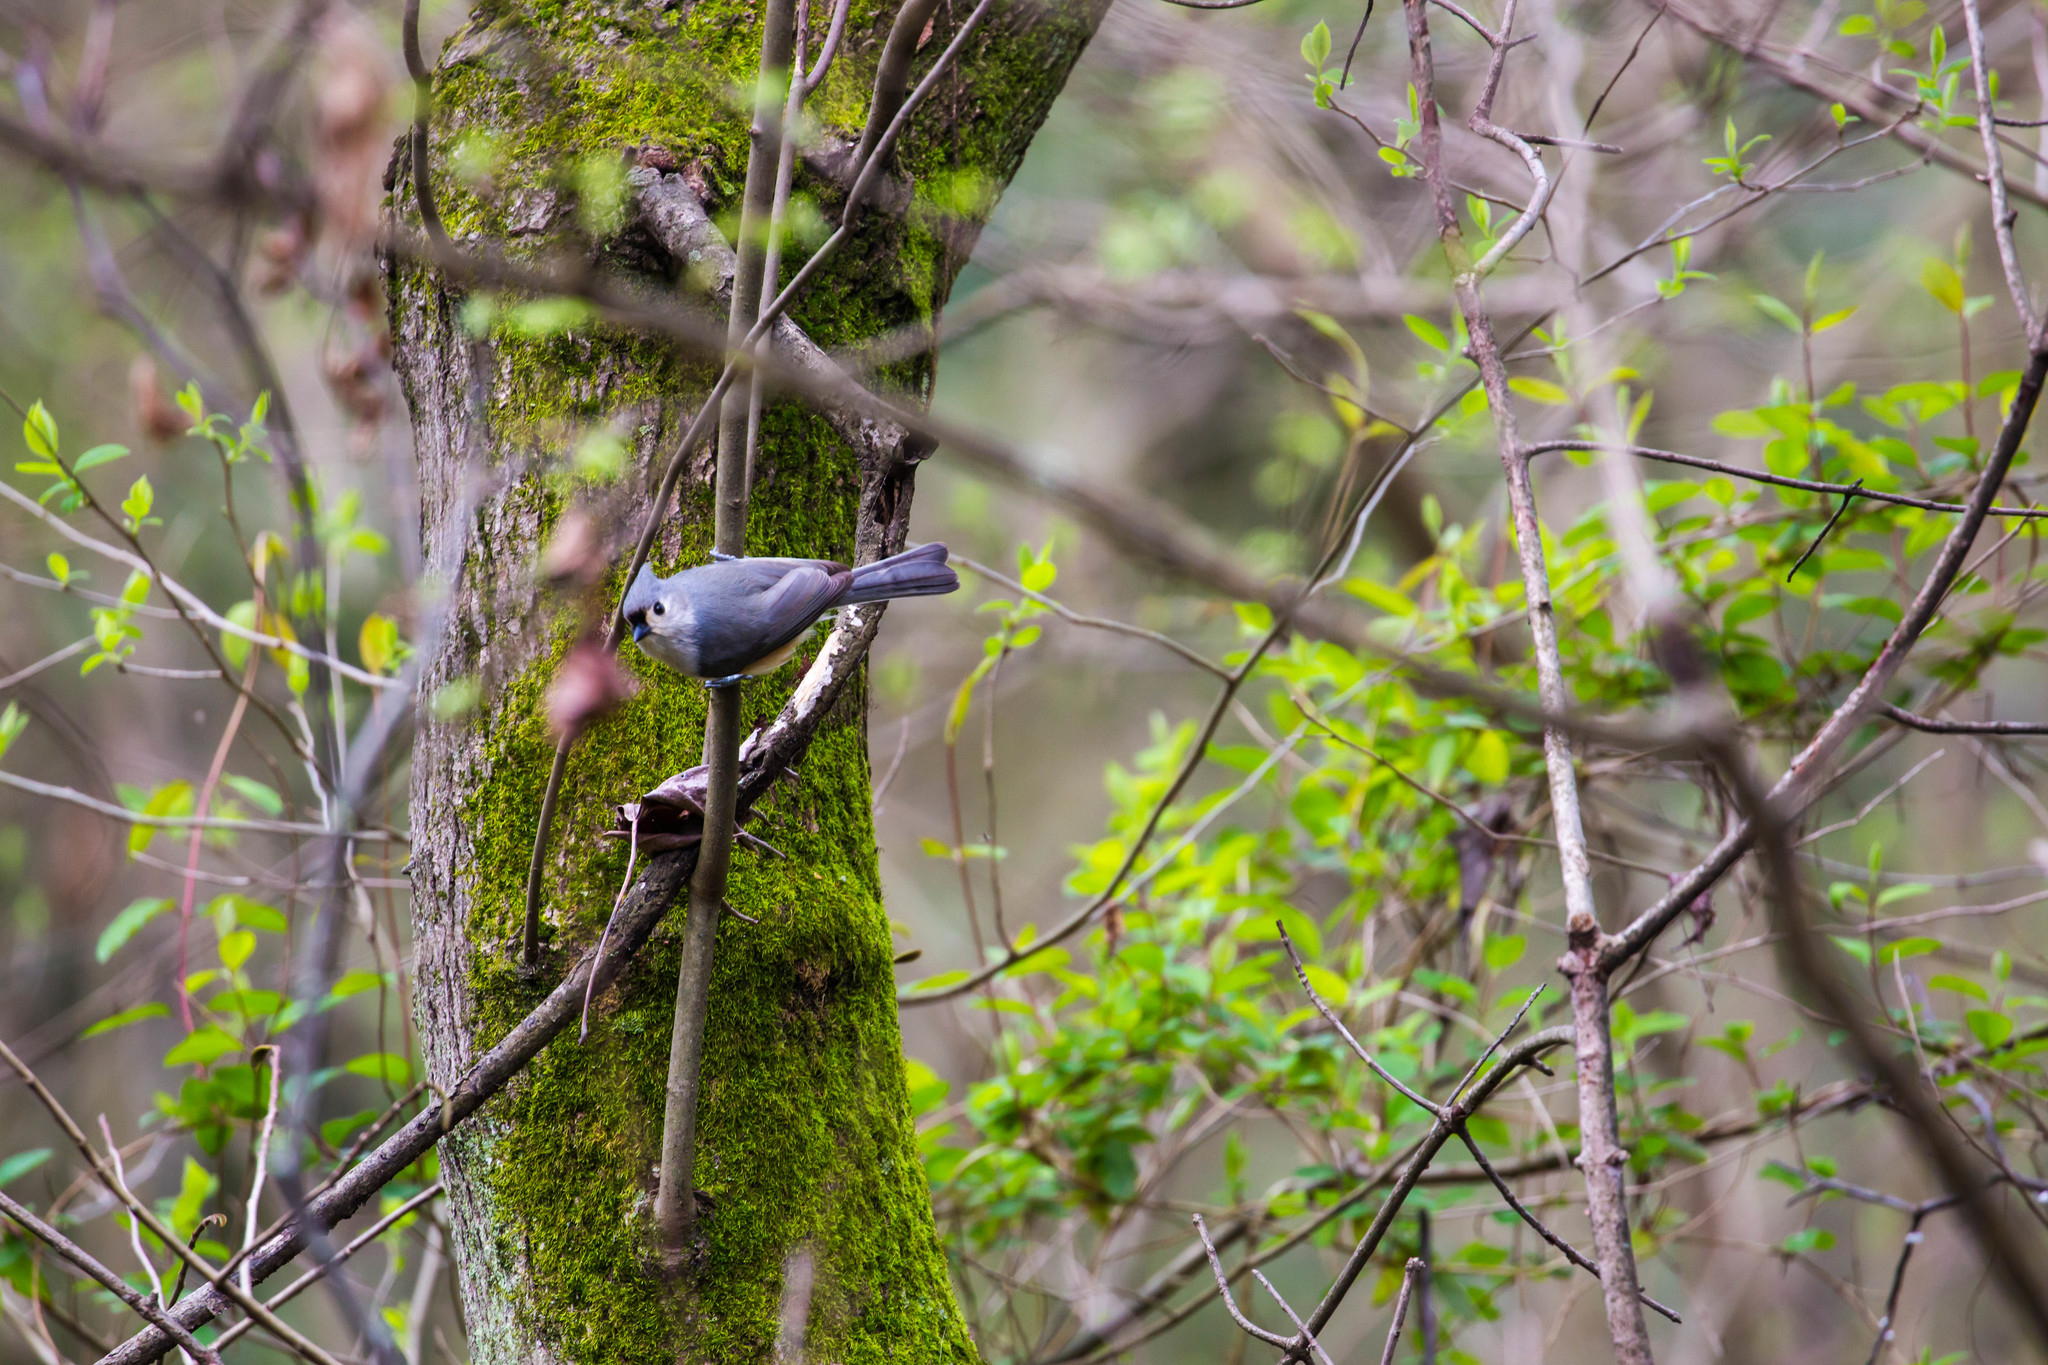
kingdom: Animalia
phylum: Chordata
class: Aves
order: Passeriformes
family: Paridae
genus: Baeolophus
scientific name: Baeolophus bicolor
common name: Tufted titmouse
